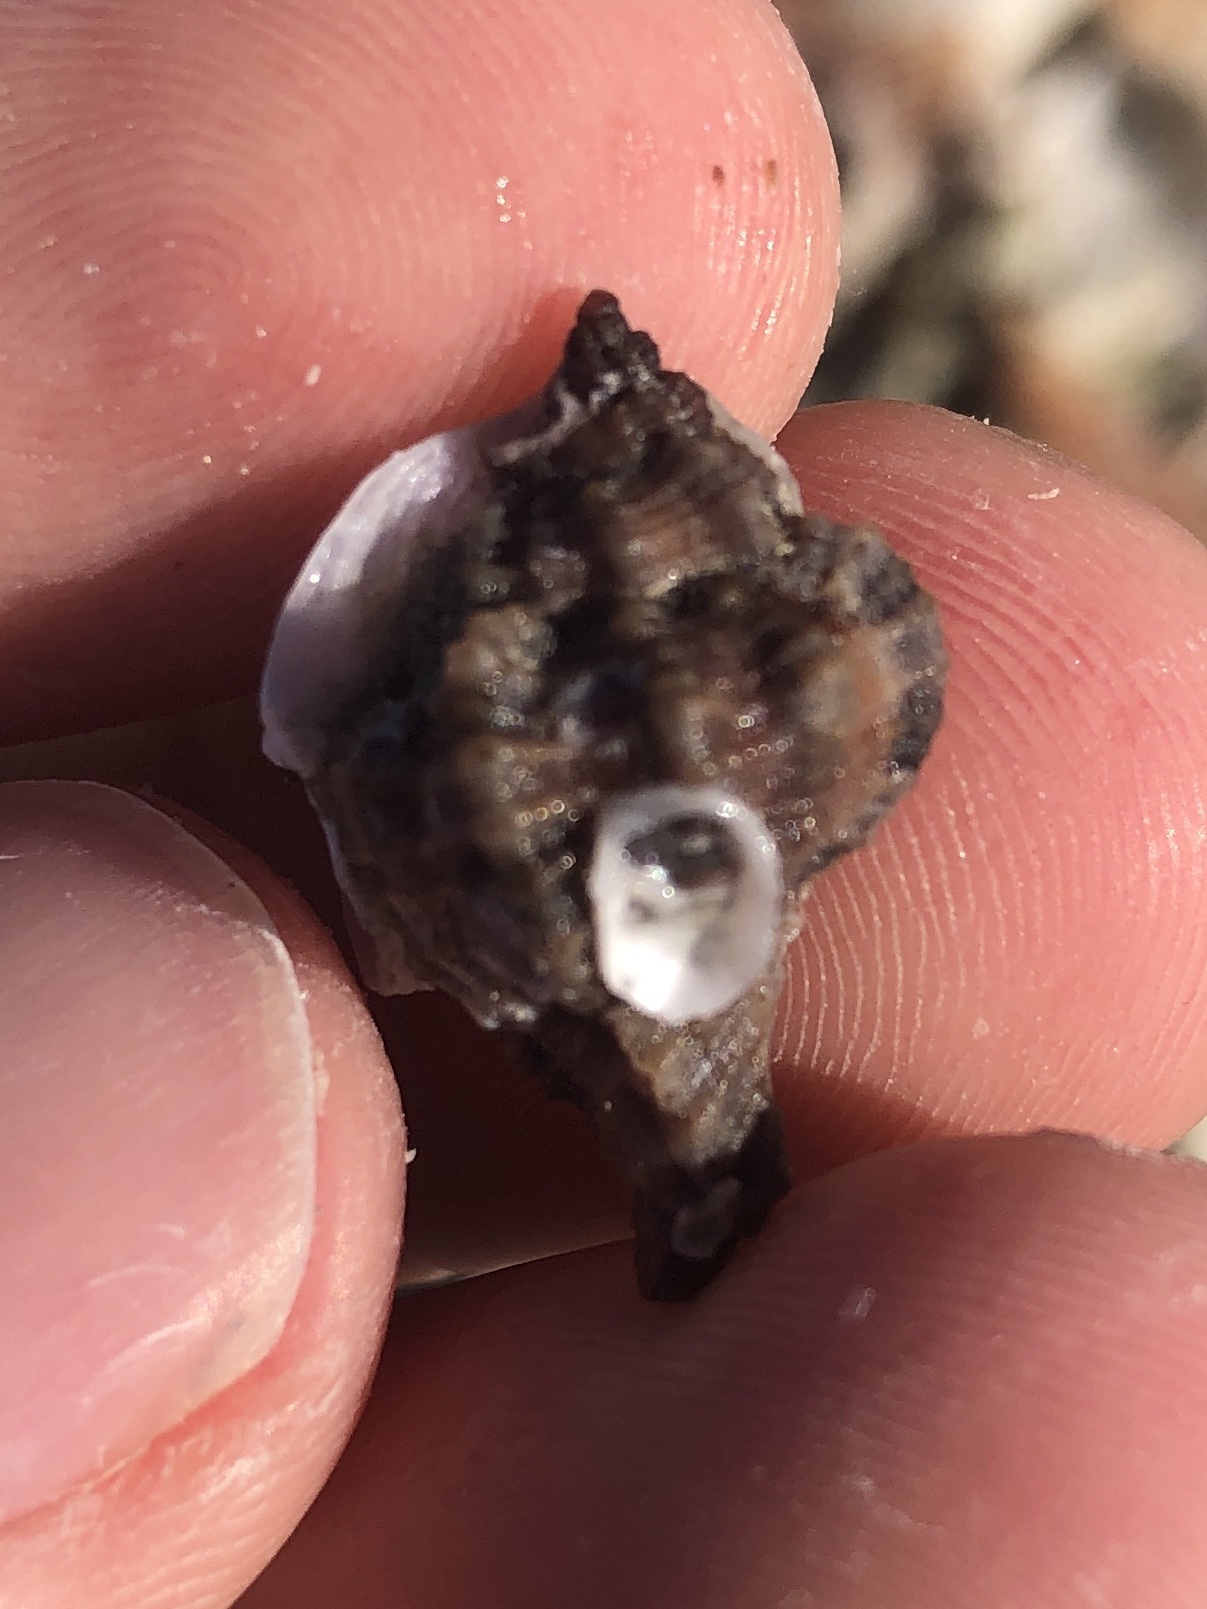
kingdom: Animalia
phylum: Mollusca
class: Gastropoda
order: Neogastropoda
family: Muricidae
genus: Phyllonotus
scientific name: Phyllonotus pomum
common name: Apple murex
